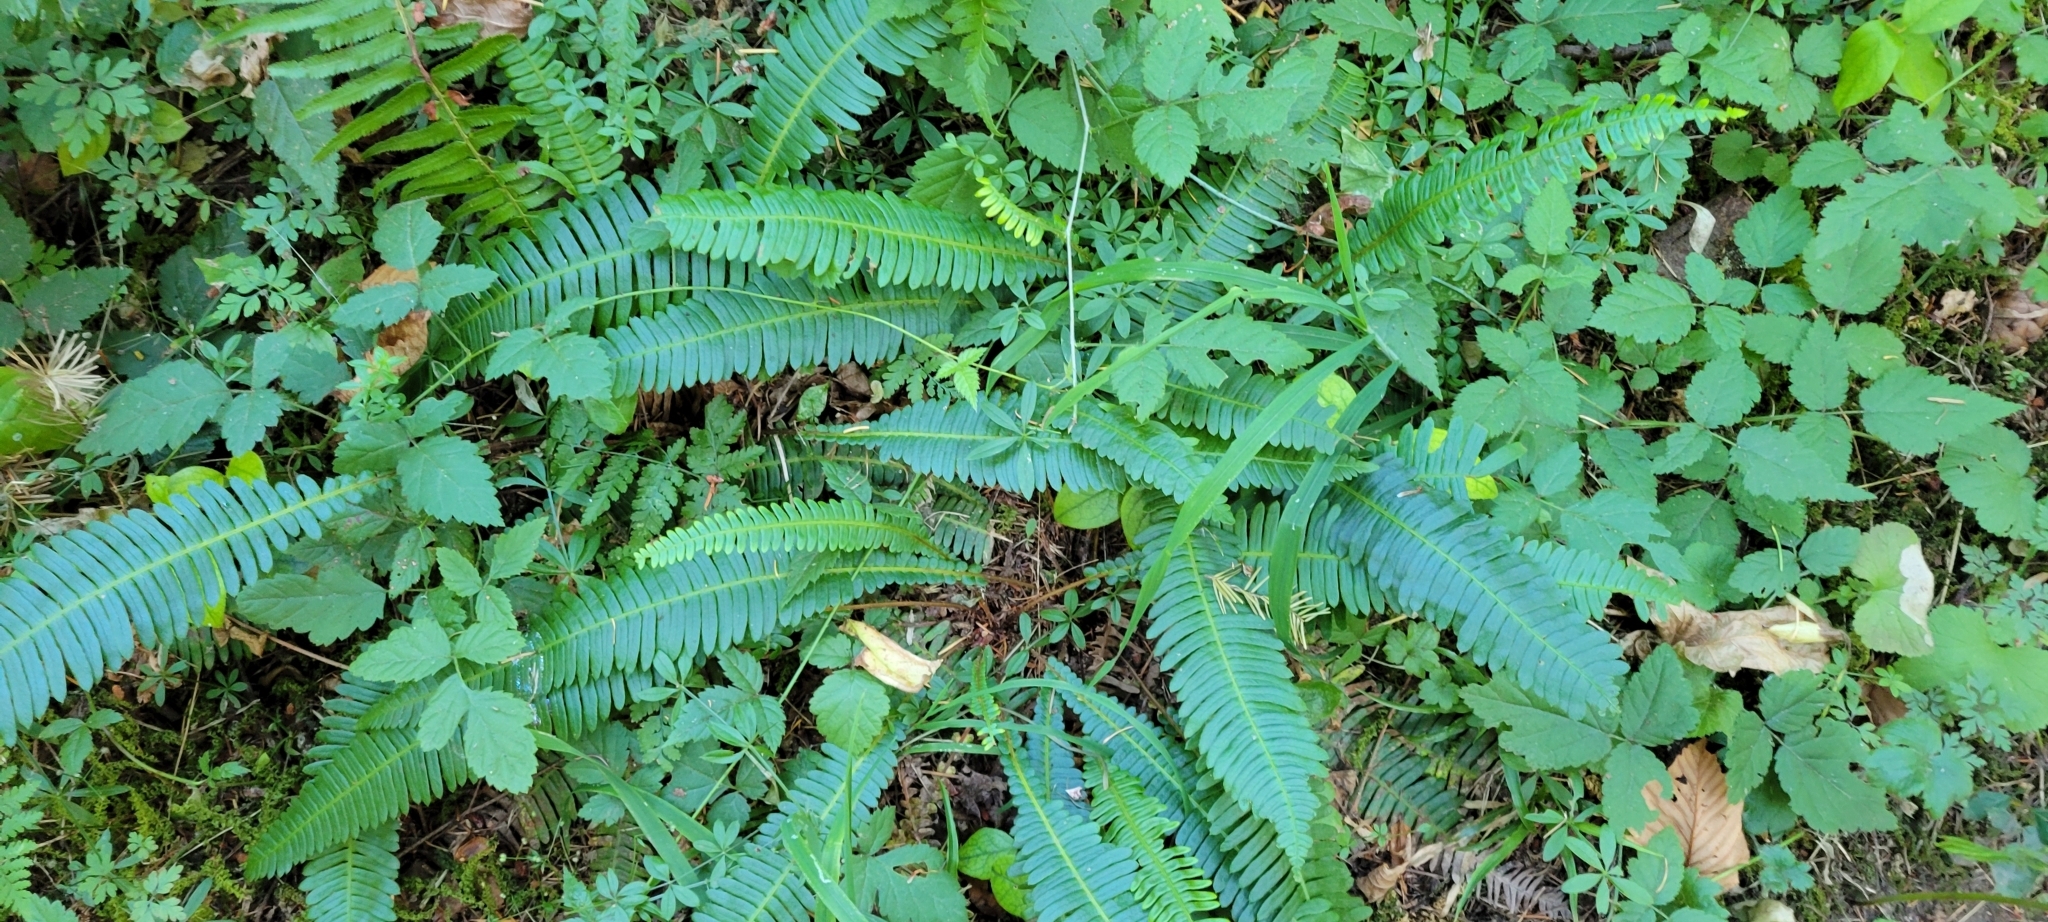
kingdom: Plantae
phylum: Tracheophyta
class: Polypodiopsida
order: Polypodiales
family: Blechnaceae
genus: Struthiopteris
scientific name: Struthiopteris spicant
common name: Deer fern
